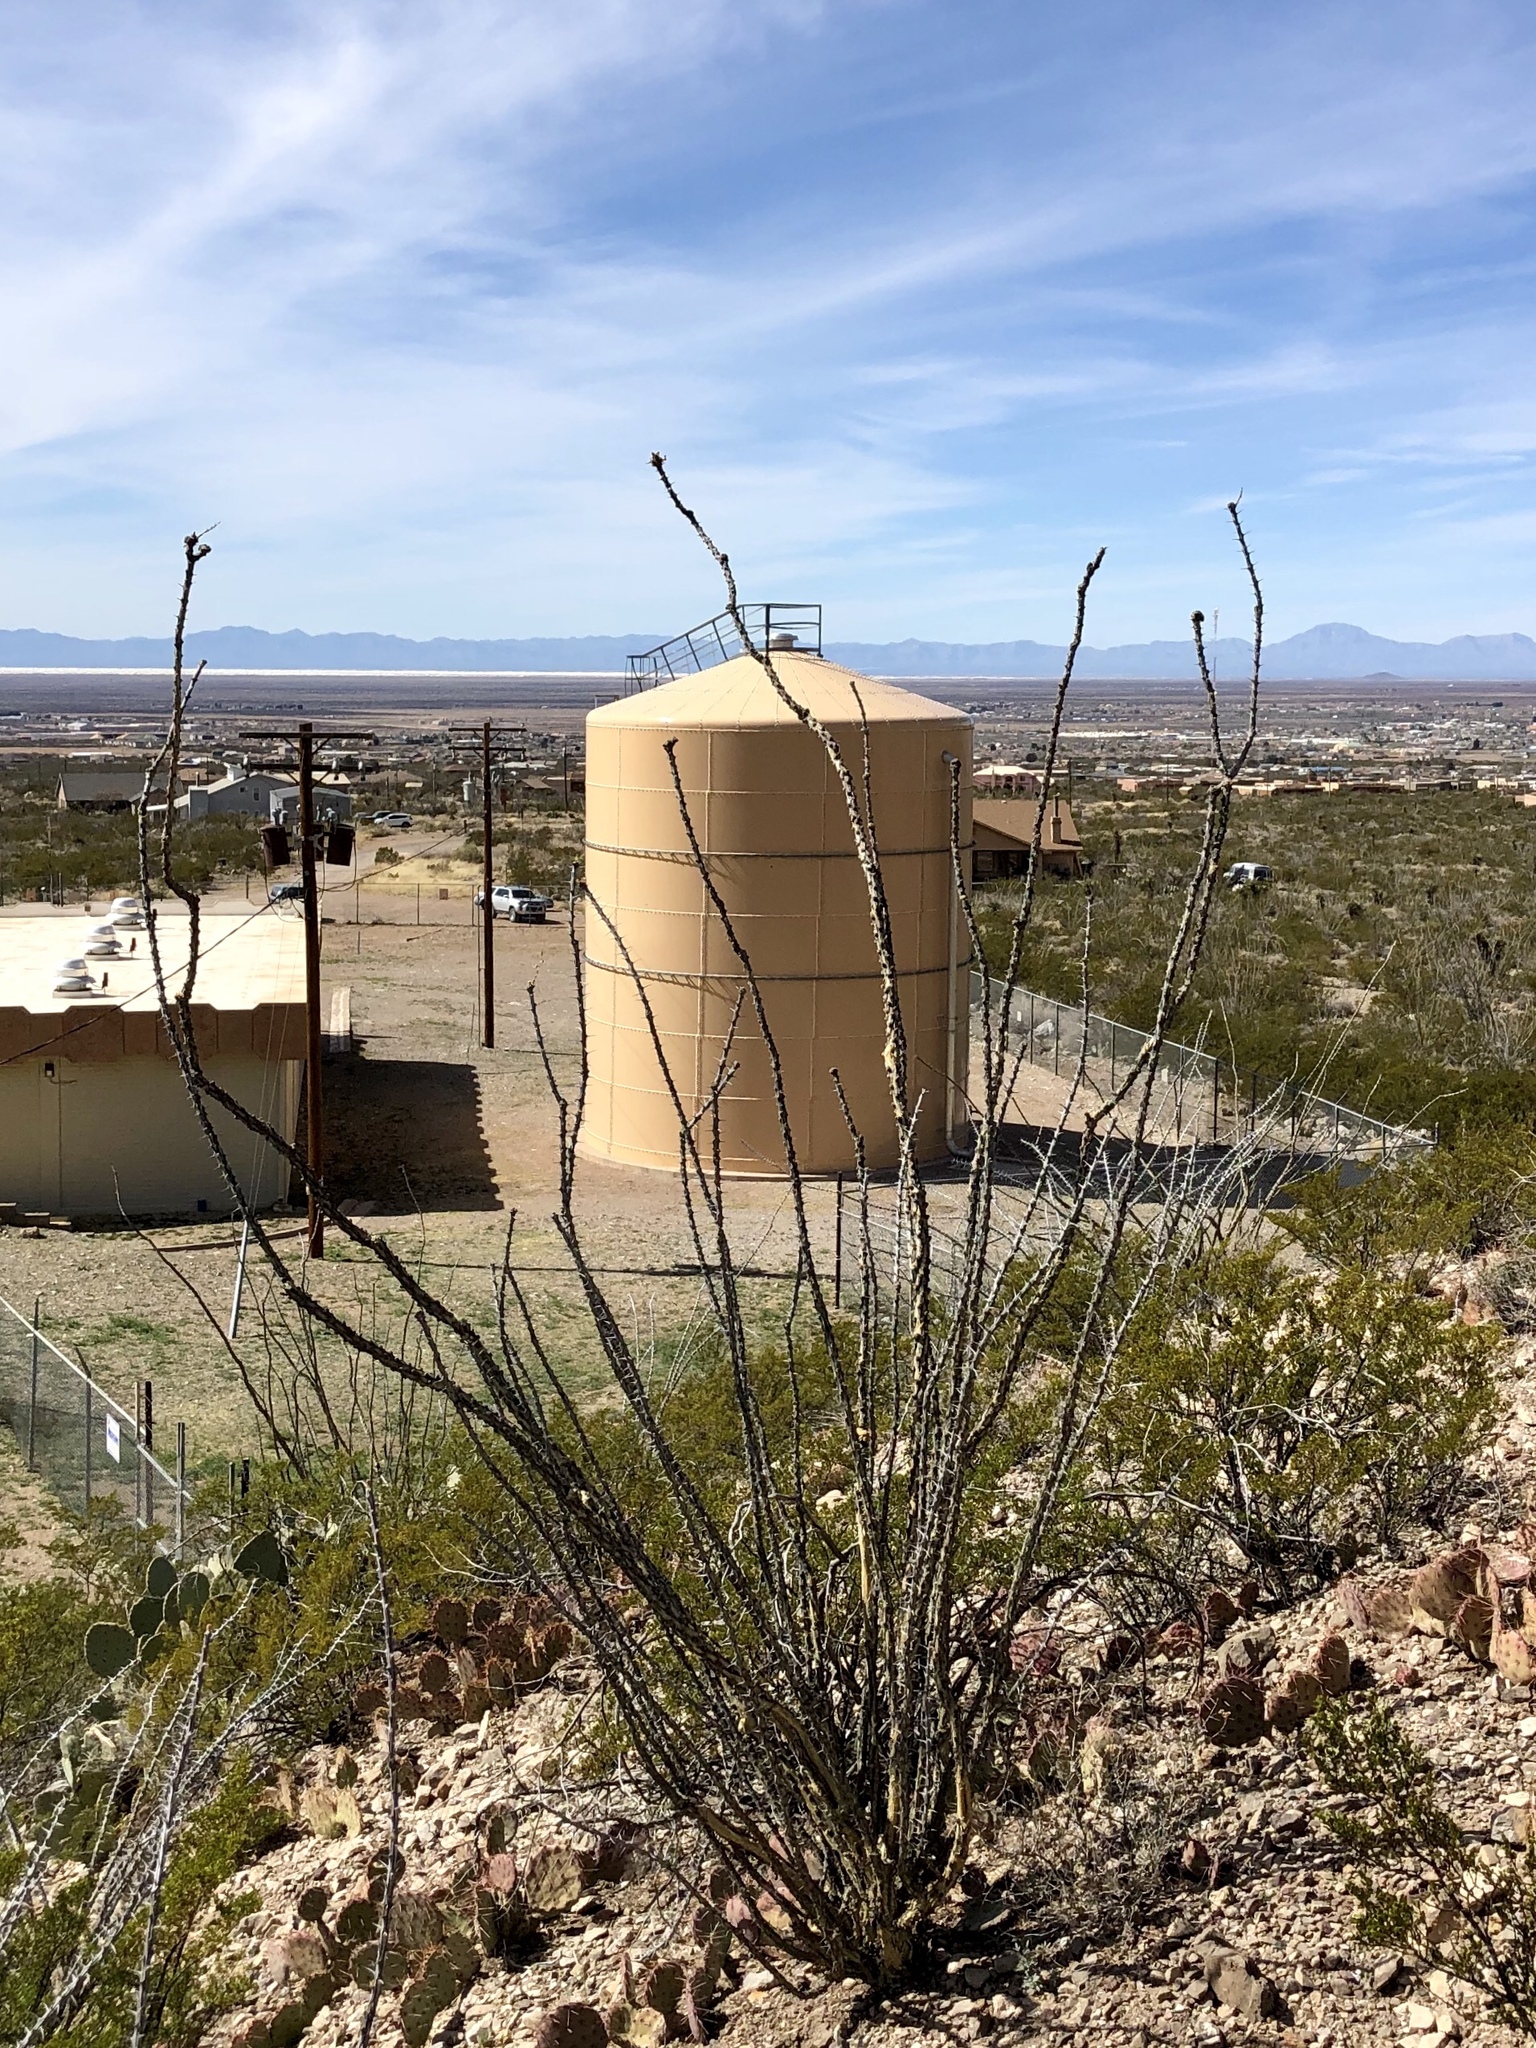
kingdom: Plantae
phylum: Tracheophyta
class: Magnoliopsida
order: Ericales
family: Fouquieriaceae
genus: Fouquieria
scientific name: Fouquieria splendens
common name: Vine-cactus
